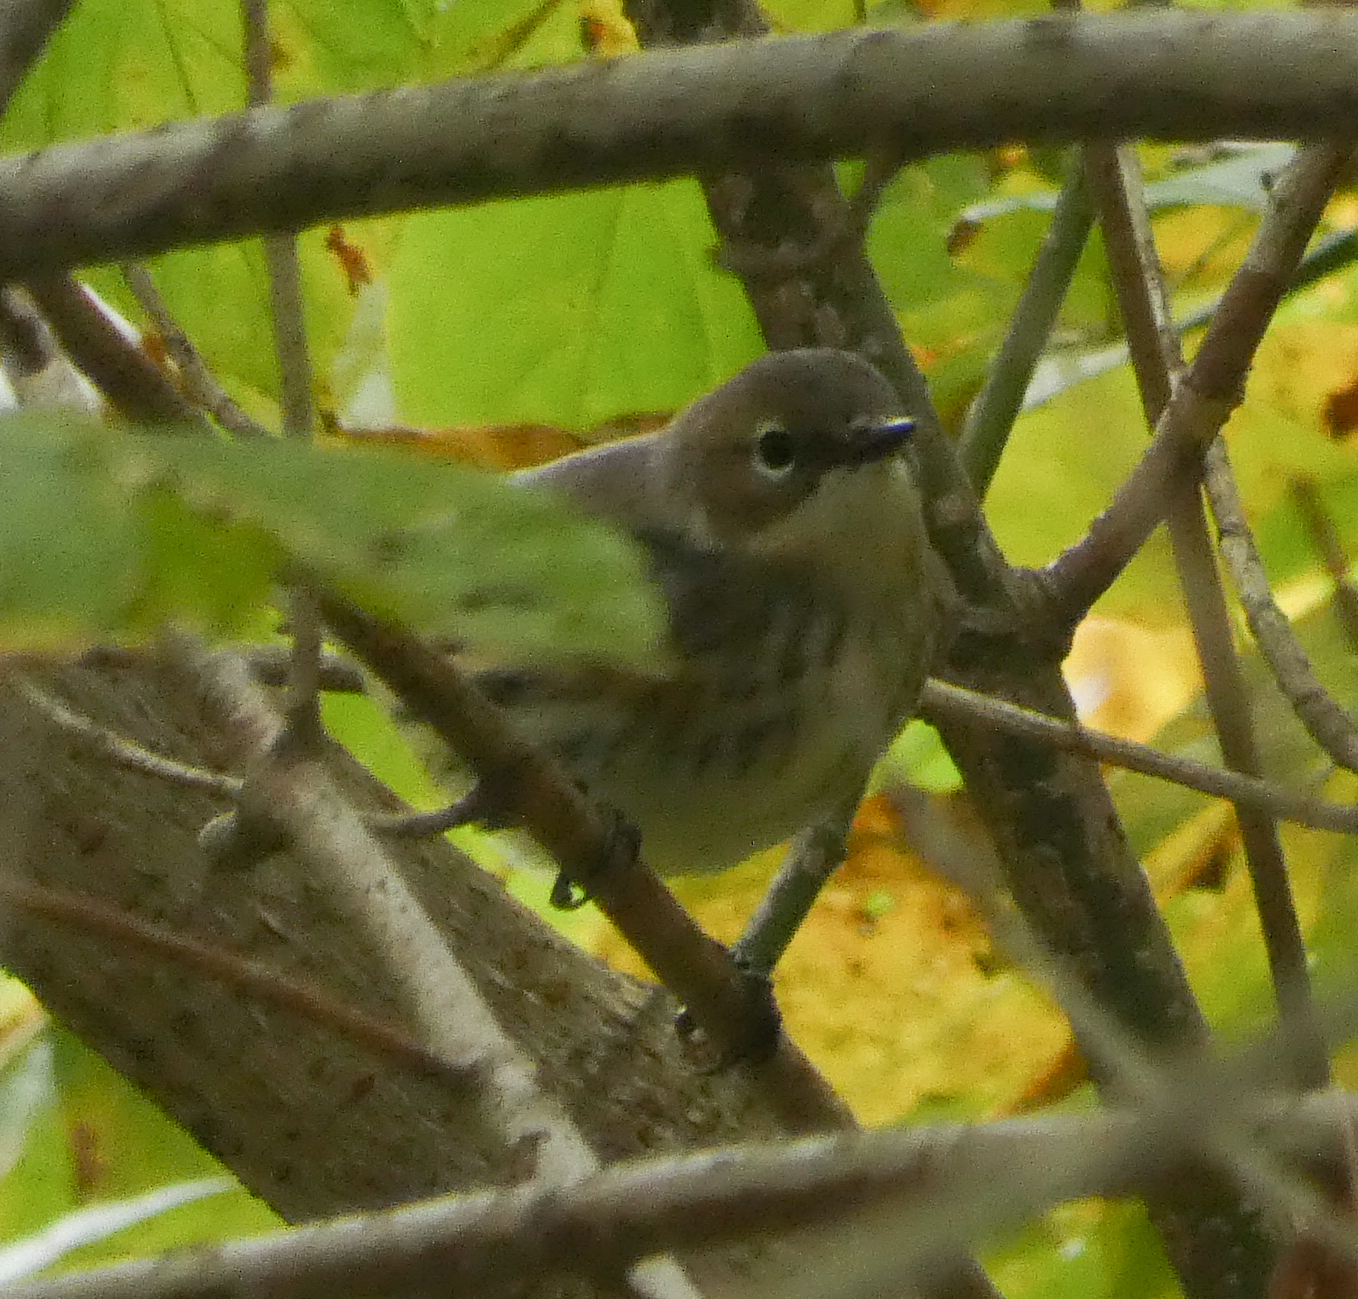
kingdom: Animalia
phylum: Chordata
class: Aves
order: Passeriformes
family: Parulidae
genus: Setophaga
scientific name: Setophaga coronata
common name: Myrtle warbler
